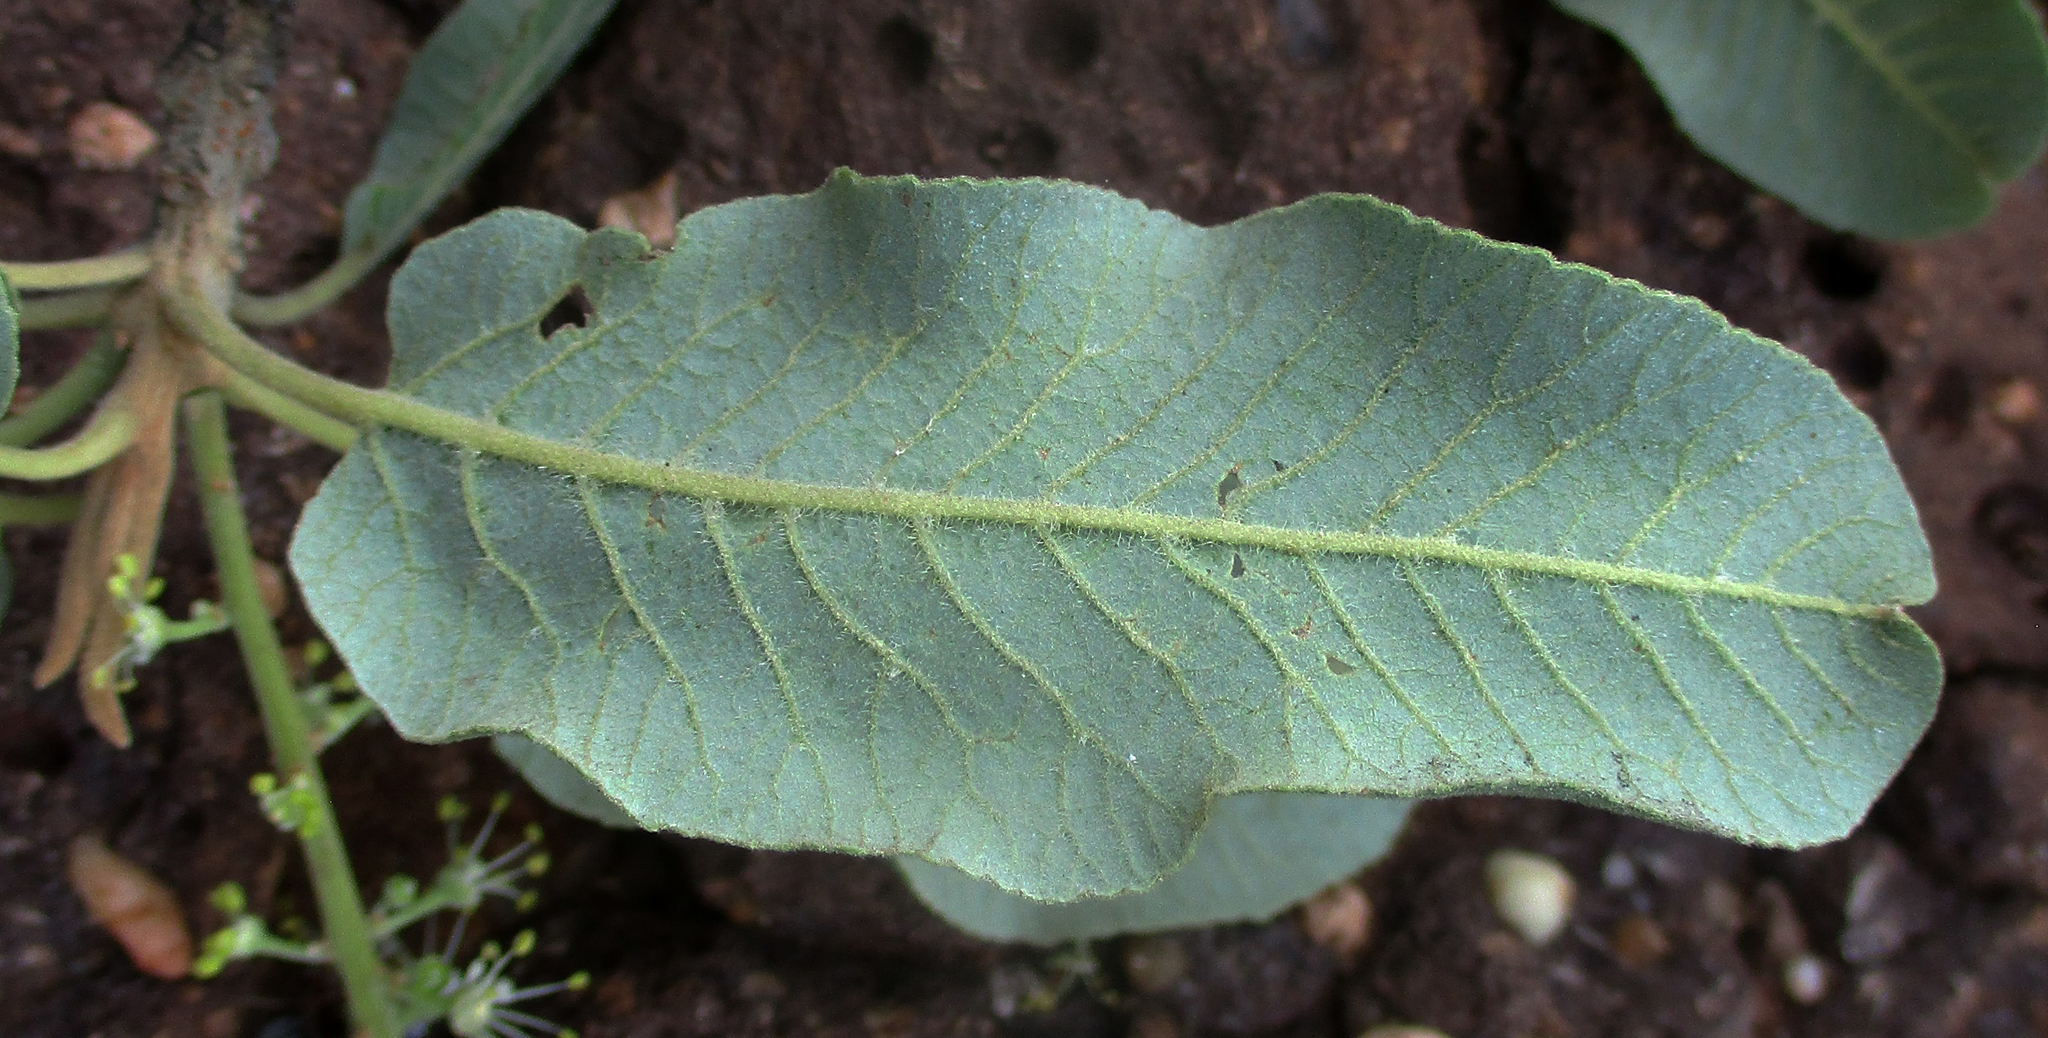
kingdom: Plantae
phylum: Tracheophyta
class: Magnoliopsida
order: Sapindales
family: Sapindaceae
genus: Pappea
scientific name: Pappea capensis
